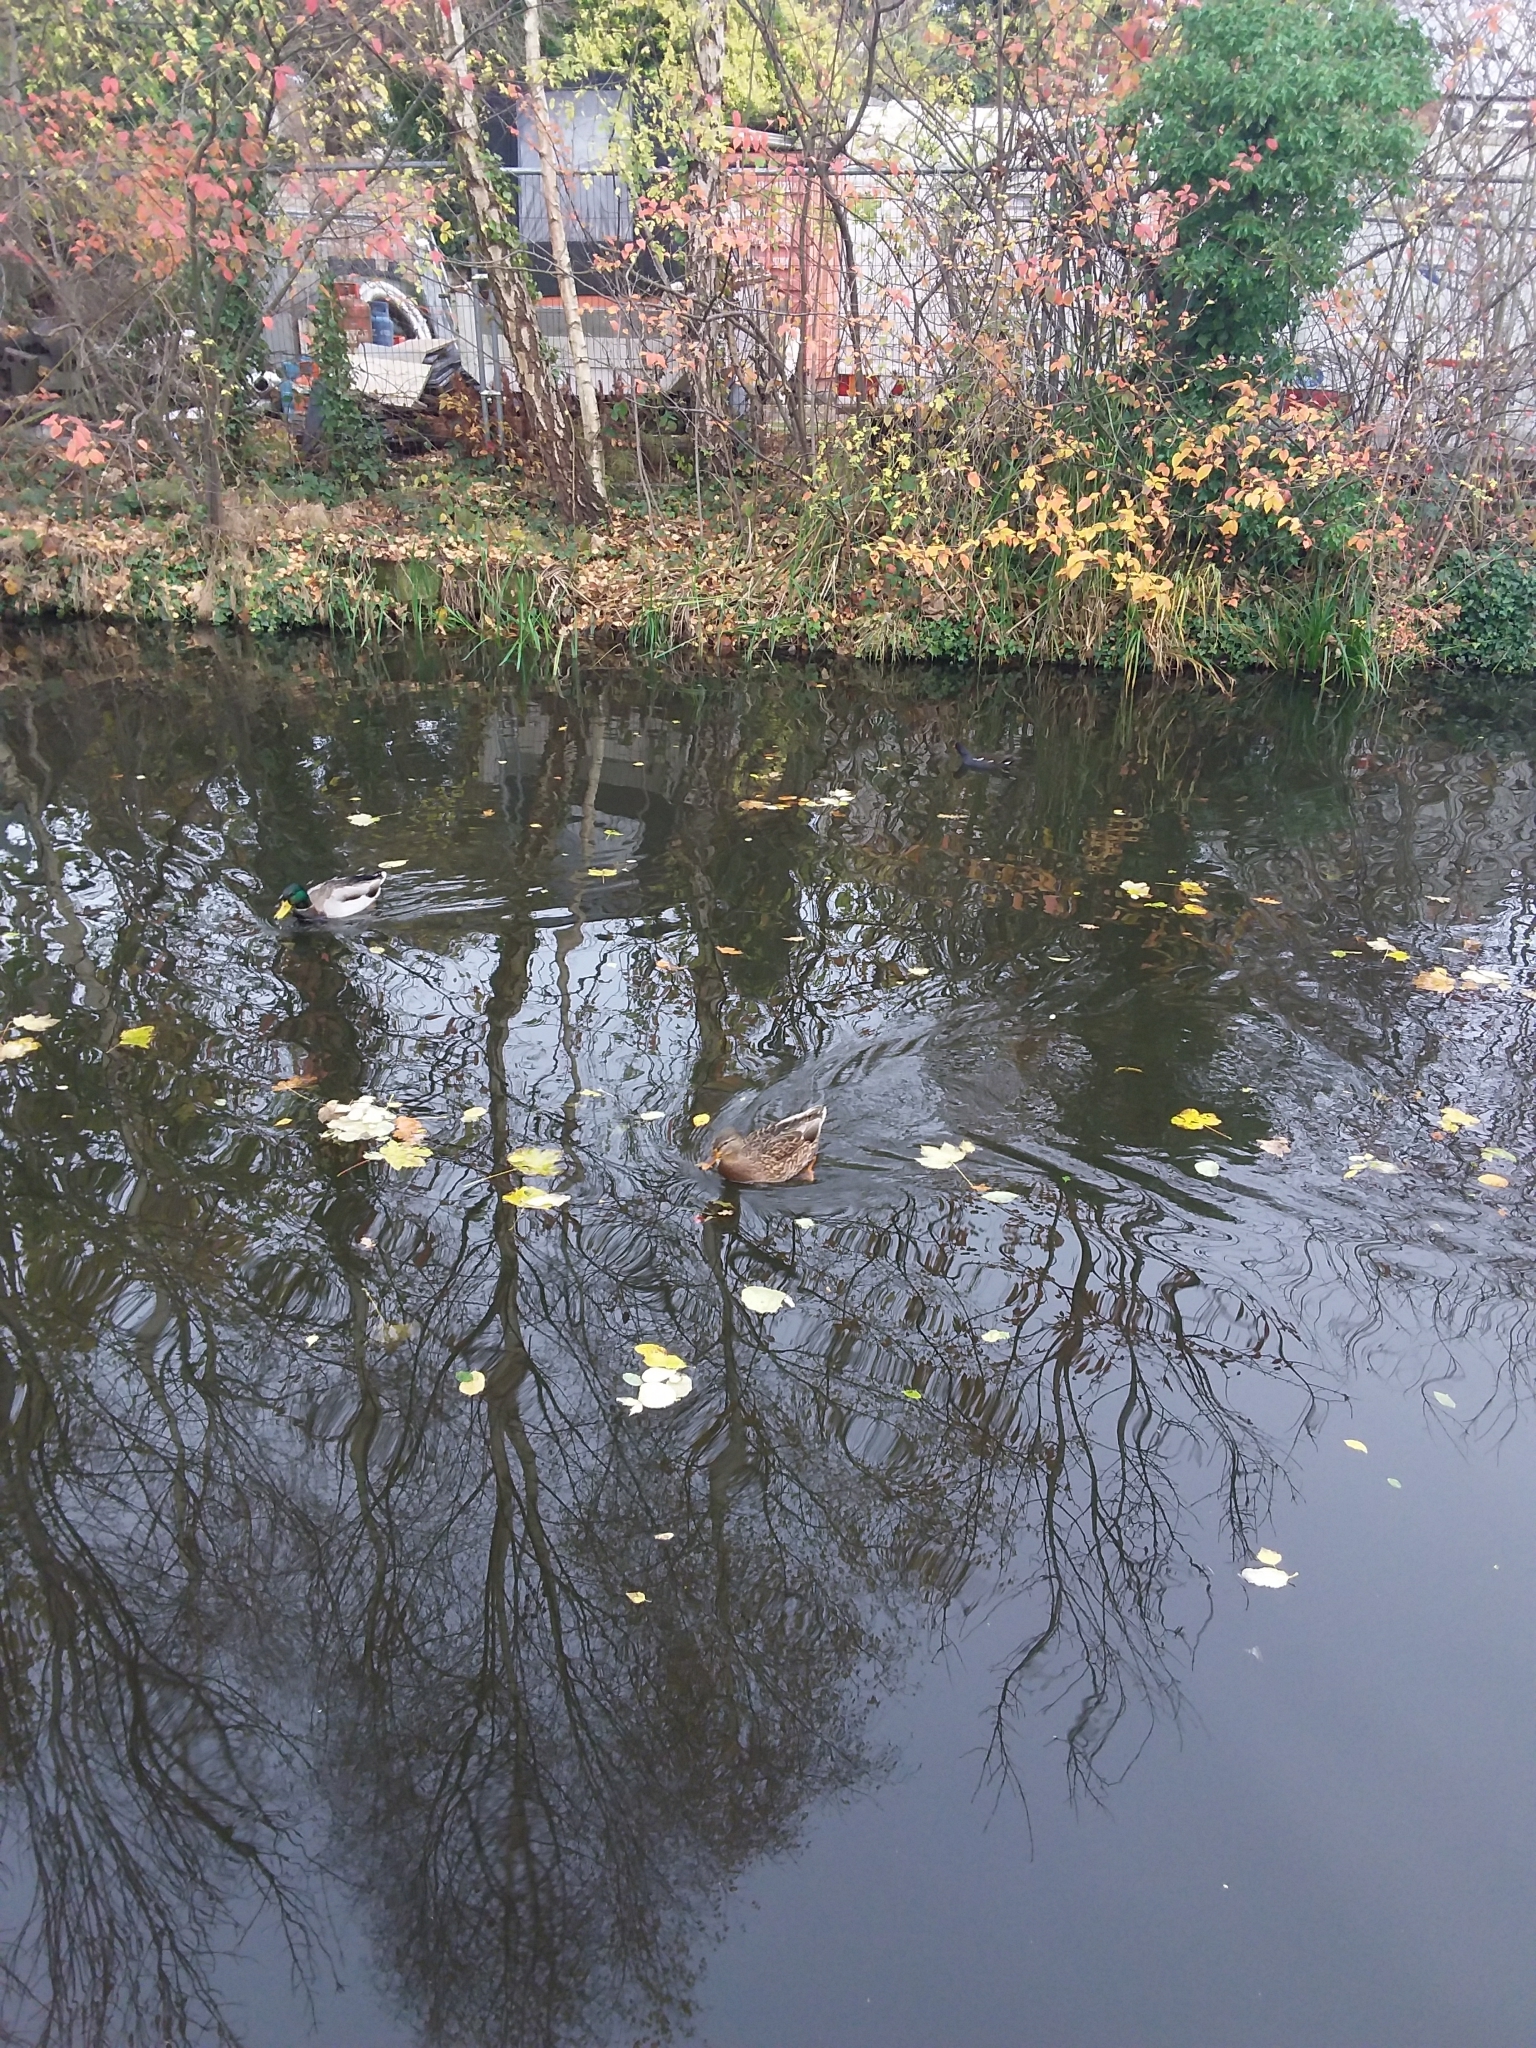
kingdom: Animalia
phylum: Chordata
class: Aves
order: Anseriformes
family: Anatidae
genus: Anas
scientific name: Anas platyrhynchos
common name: Mallard
